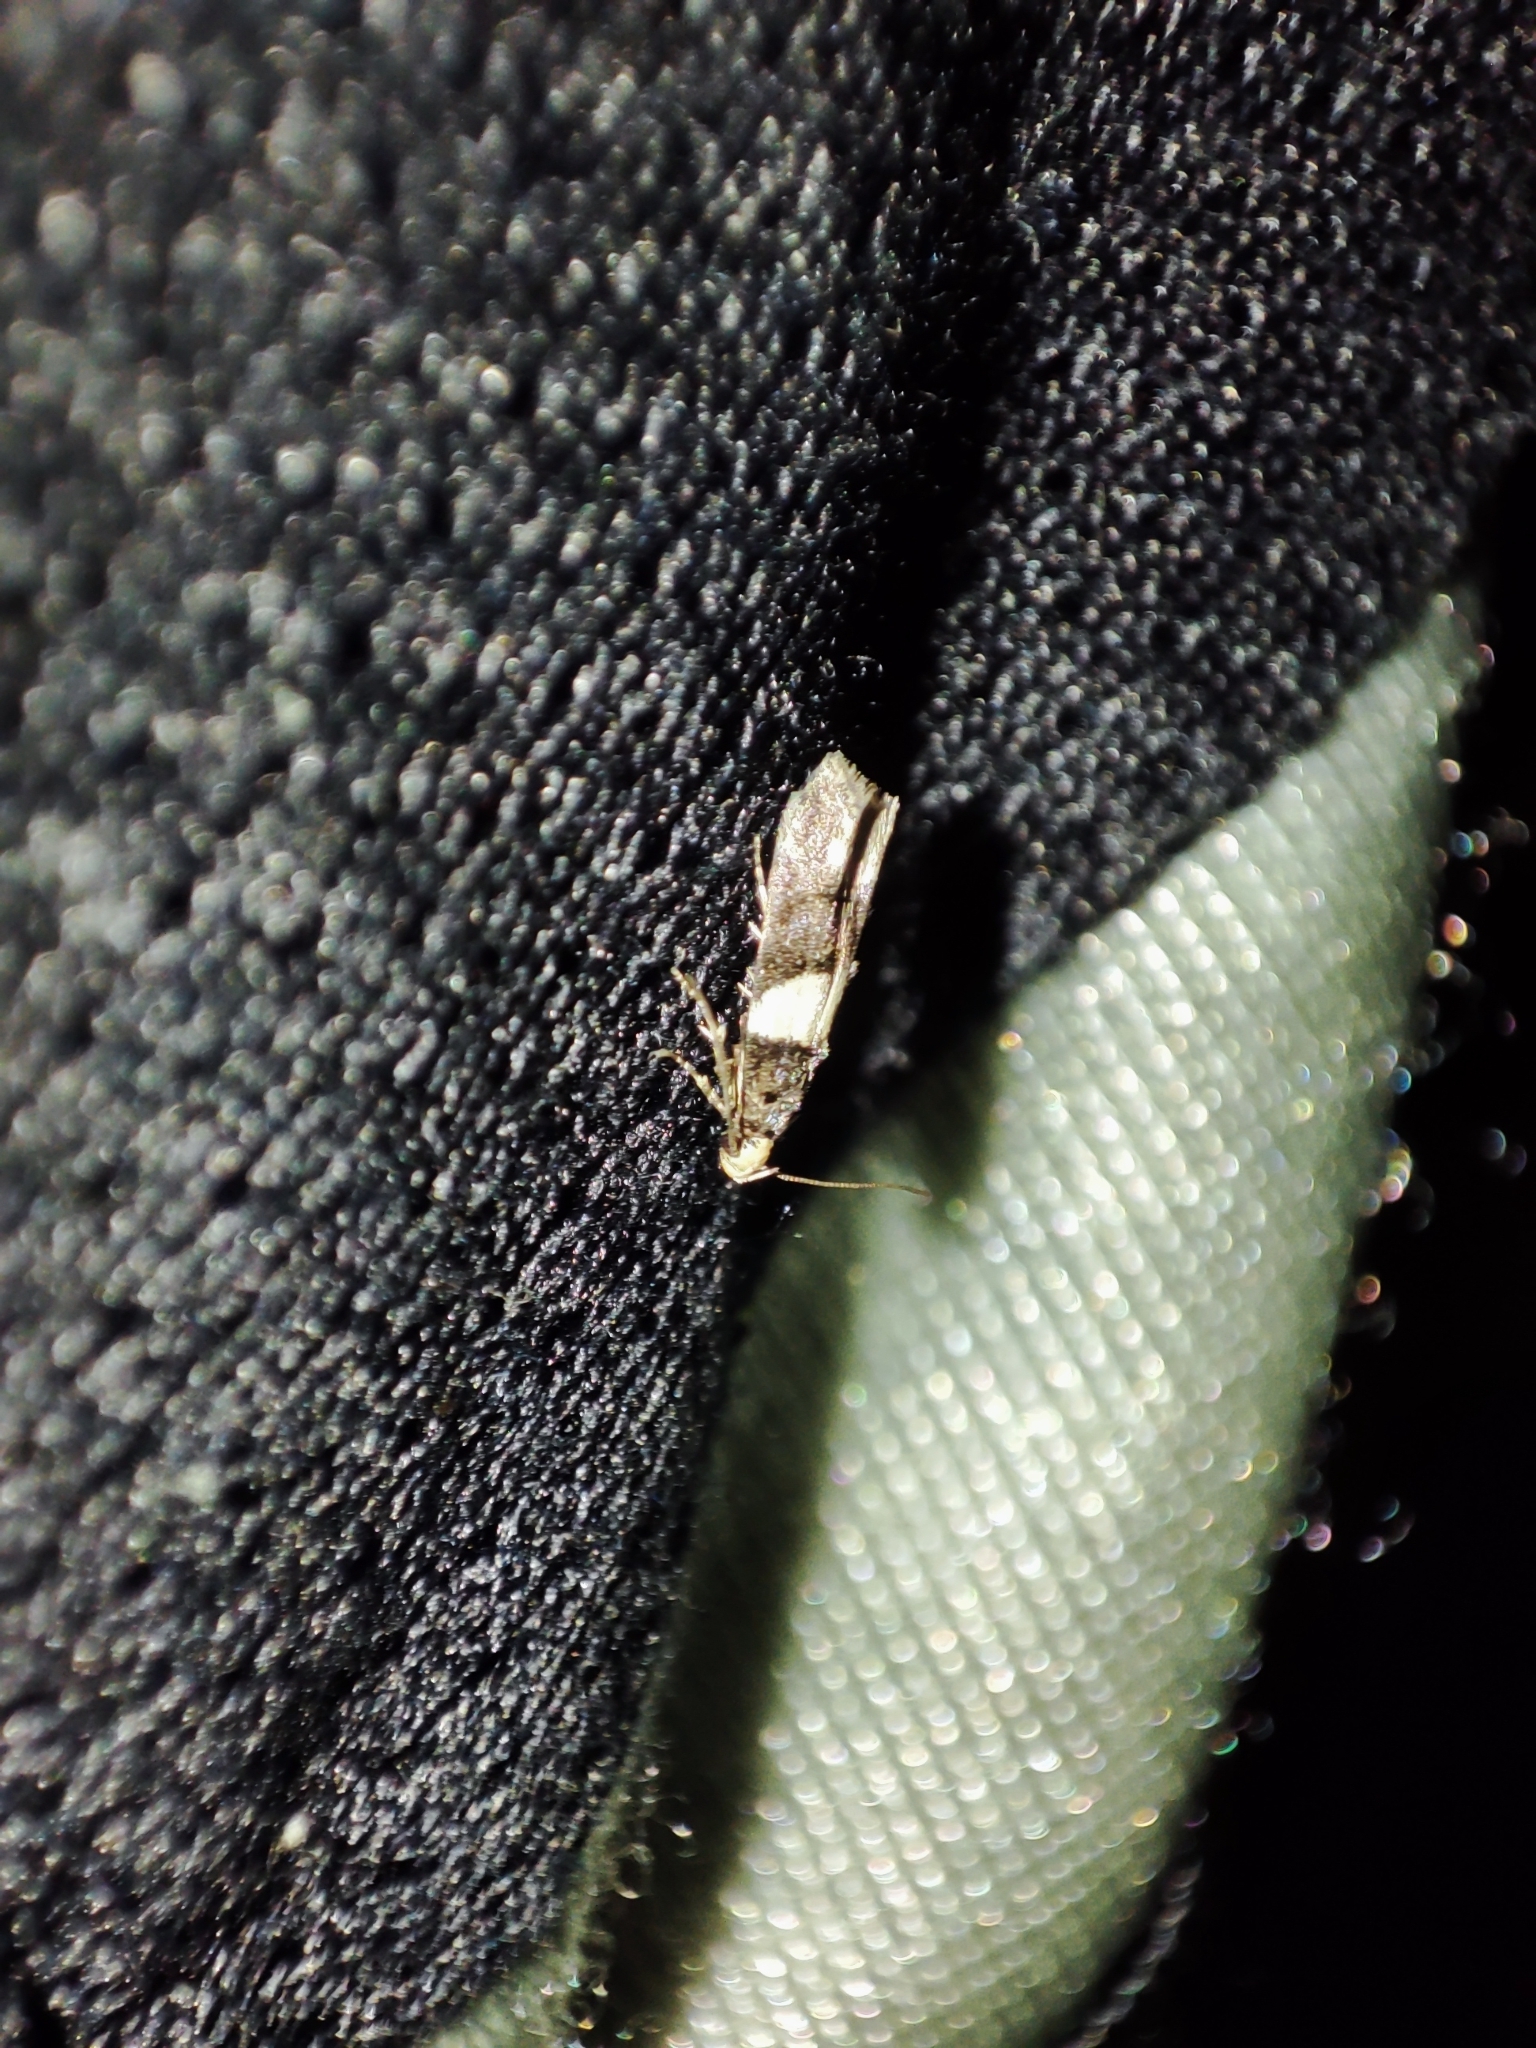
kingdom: Animalia
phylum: Arthropoda
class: Insecta
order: Lepidoptera
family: Gelechiidae
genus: Recurvaria
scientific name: Recurvaria leucatella
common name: White-barred groundling
